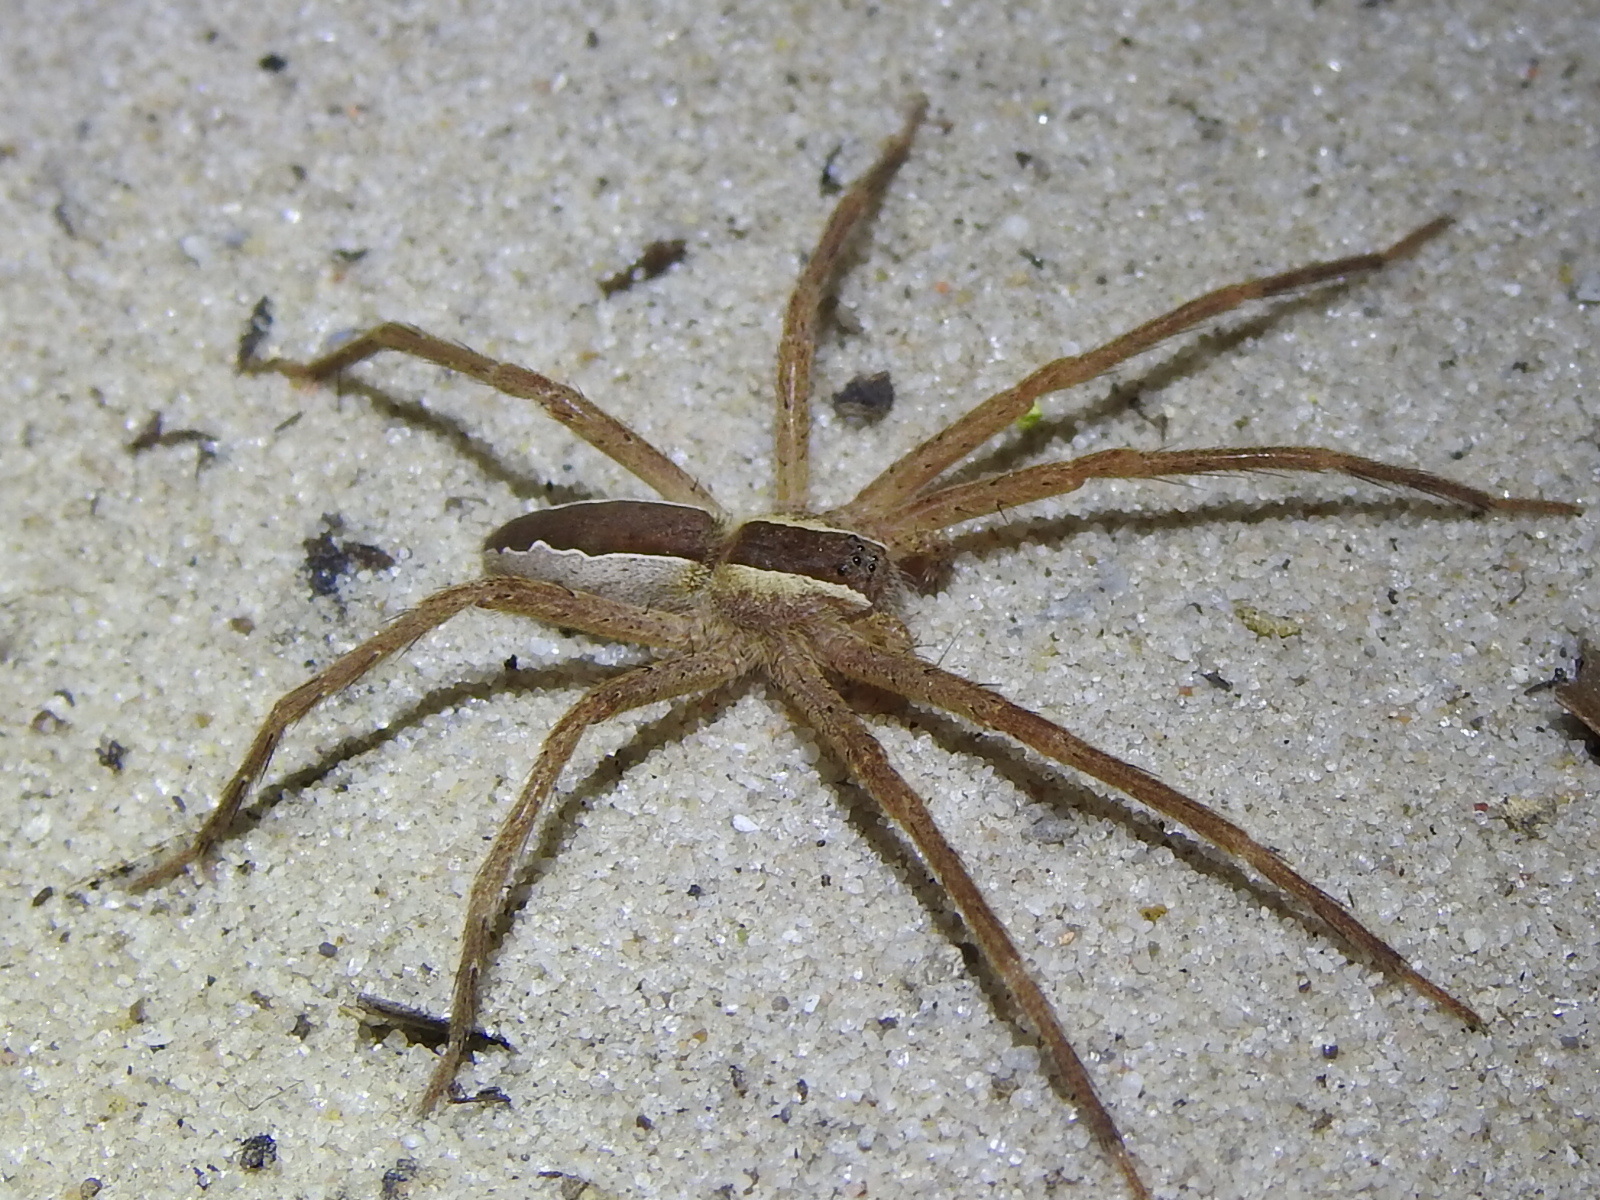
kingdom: Animalia
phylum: Arthropoda
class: Arachnida
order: Araneae
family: Pisauridae
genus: Pisaurina
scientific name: Pisaurina mira
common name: American nursery web spider
